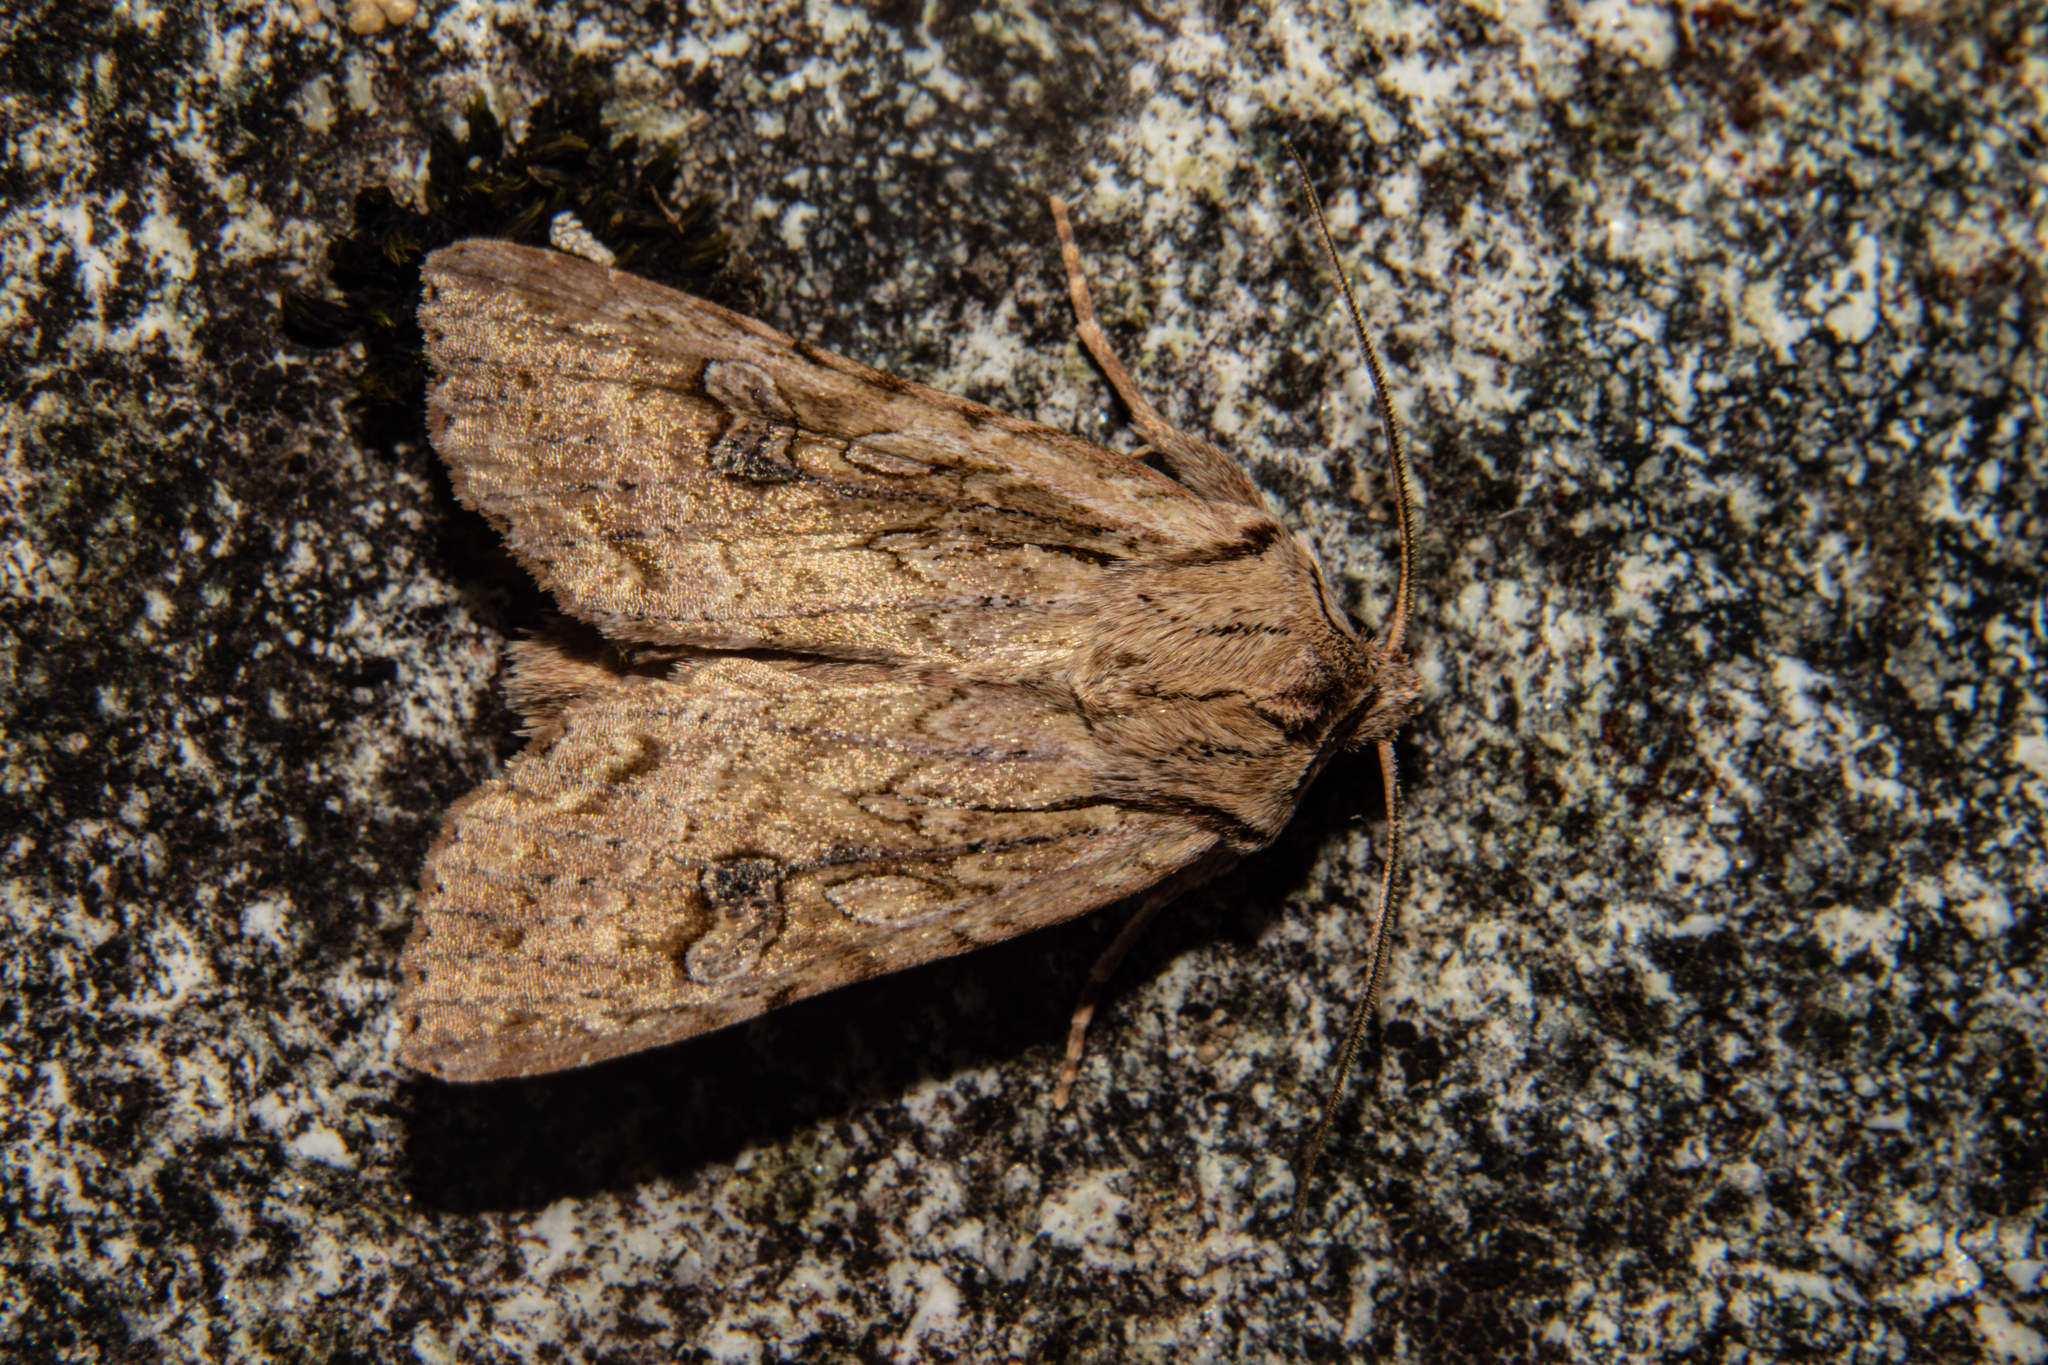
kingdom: Animalia
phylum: Arthropoda
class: Insecta
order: Lepidoptera
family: Noctuidae
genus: Ichneutica
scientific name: Ichneutica lindsayorum
